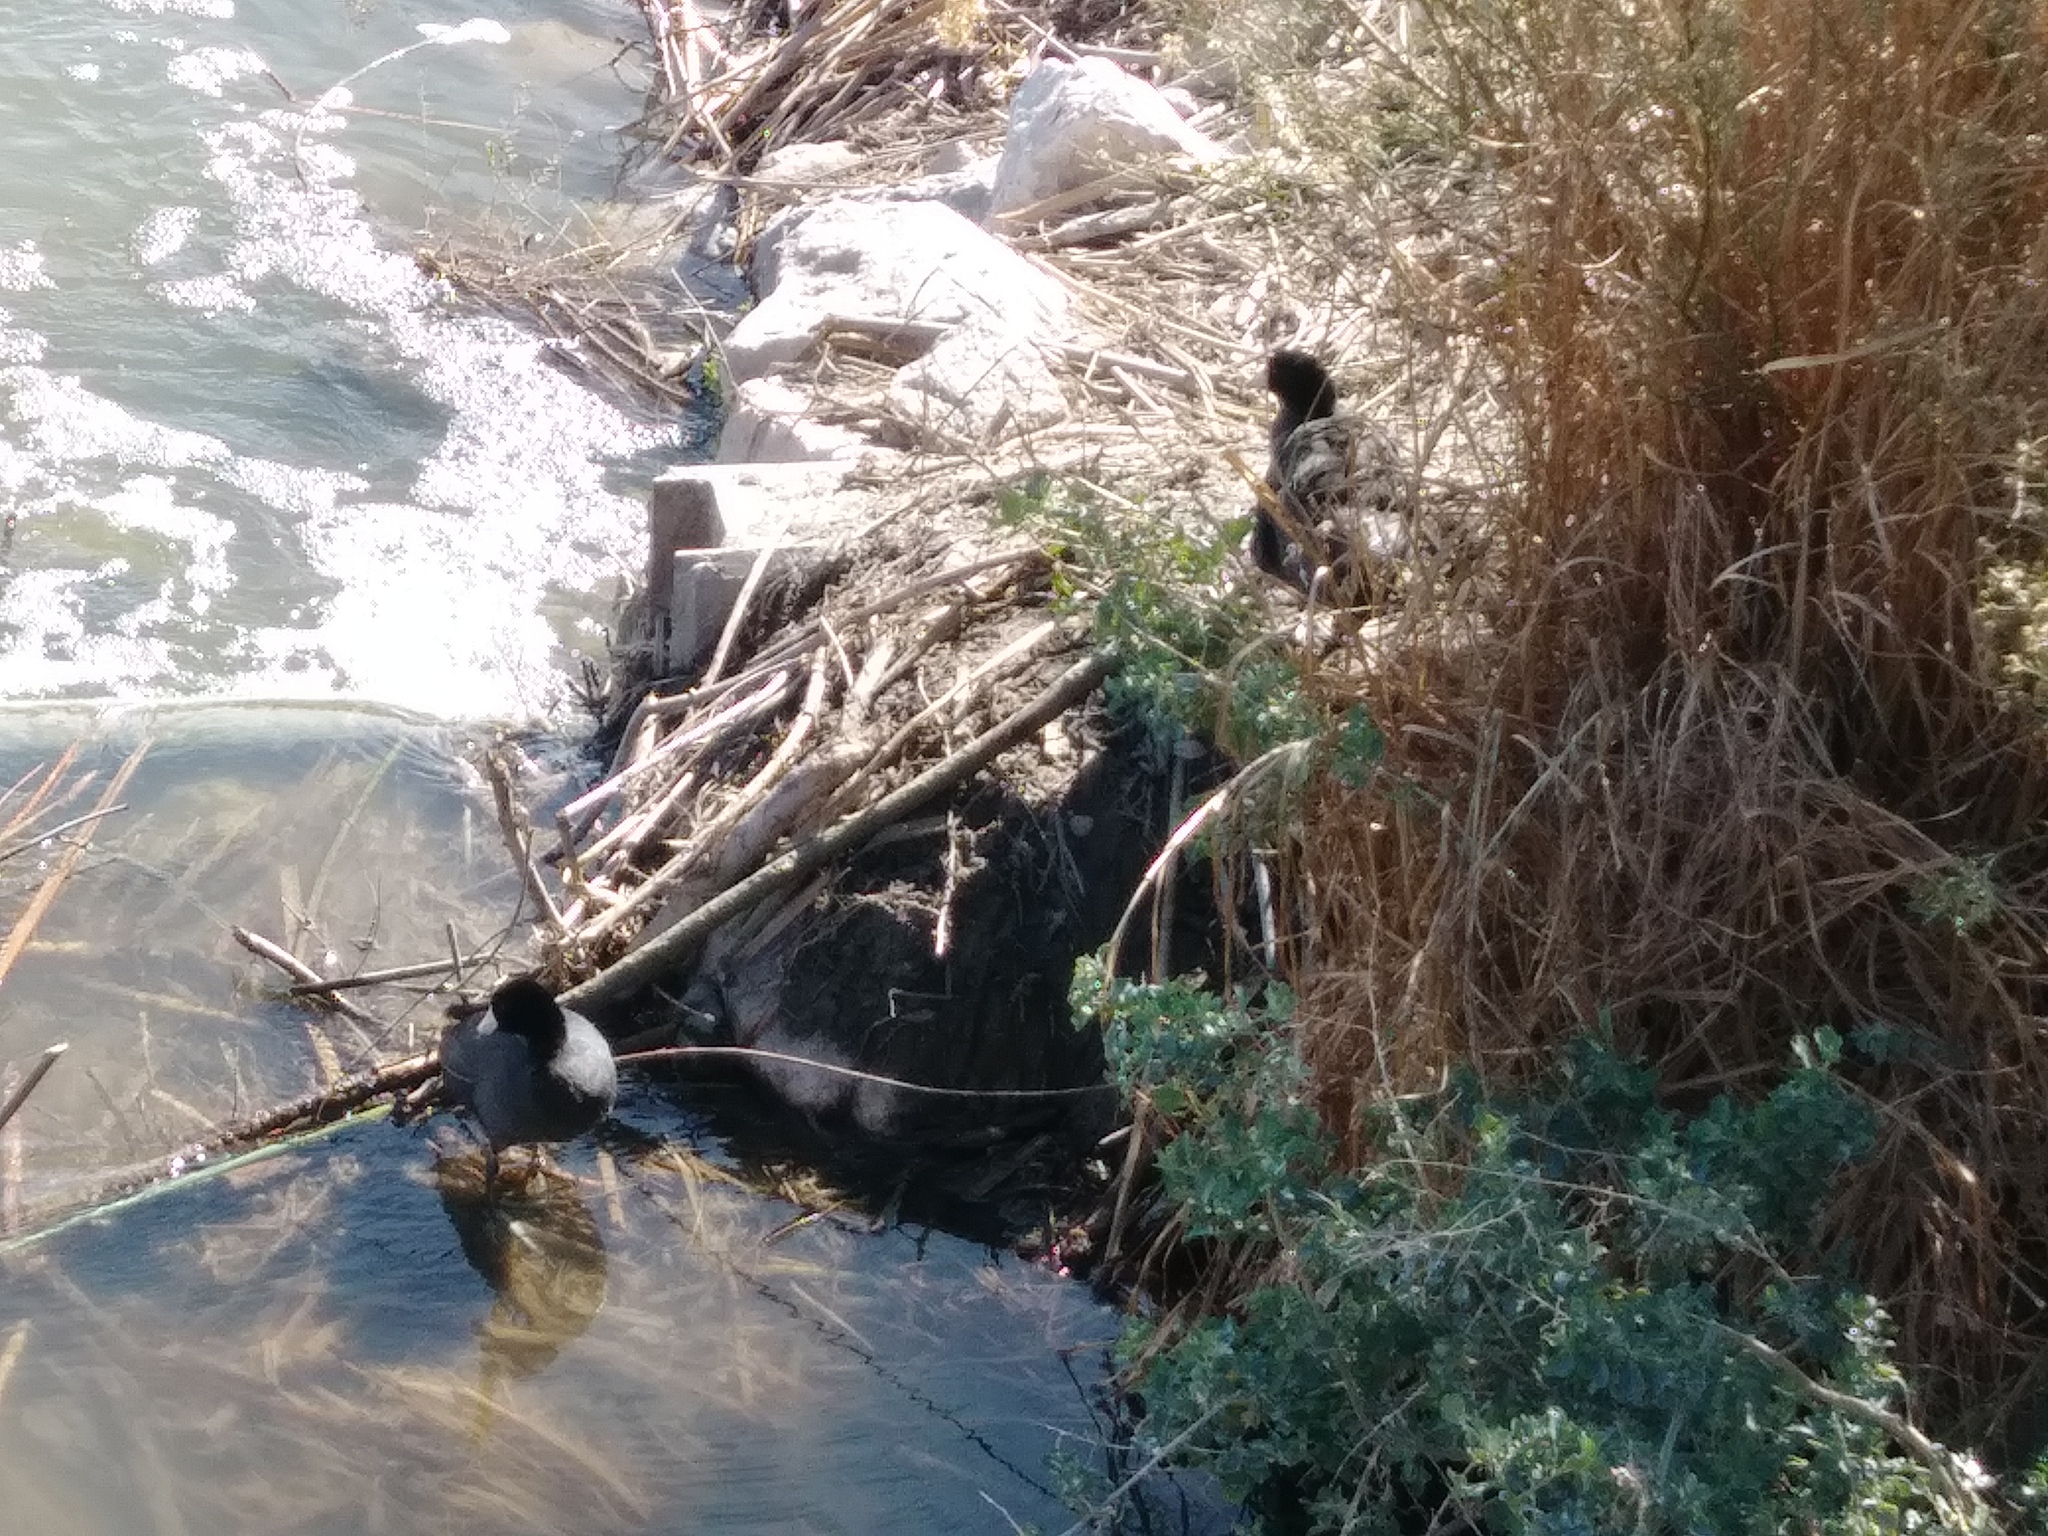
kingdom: Animalia
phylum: Chordata
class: Aves
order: Gruiformes
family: Rallidae
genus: Fulica
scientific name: Fulica americana
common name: American coot
